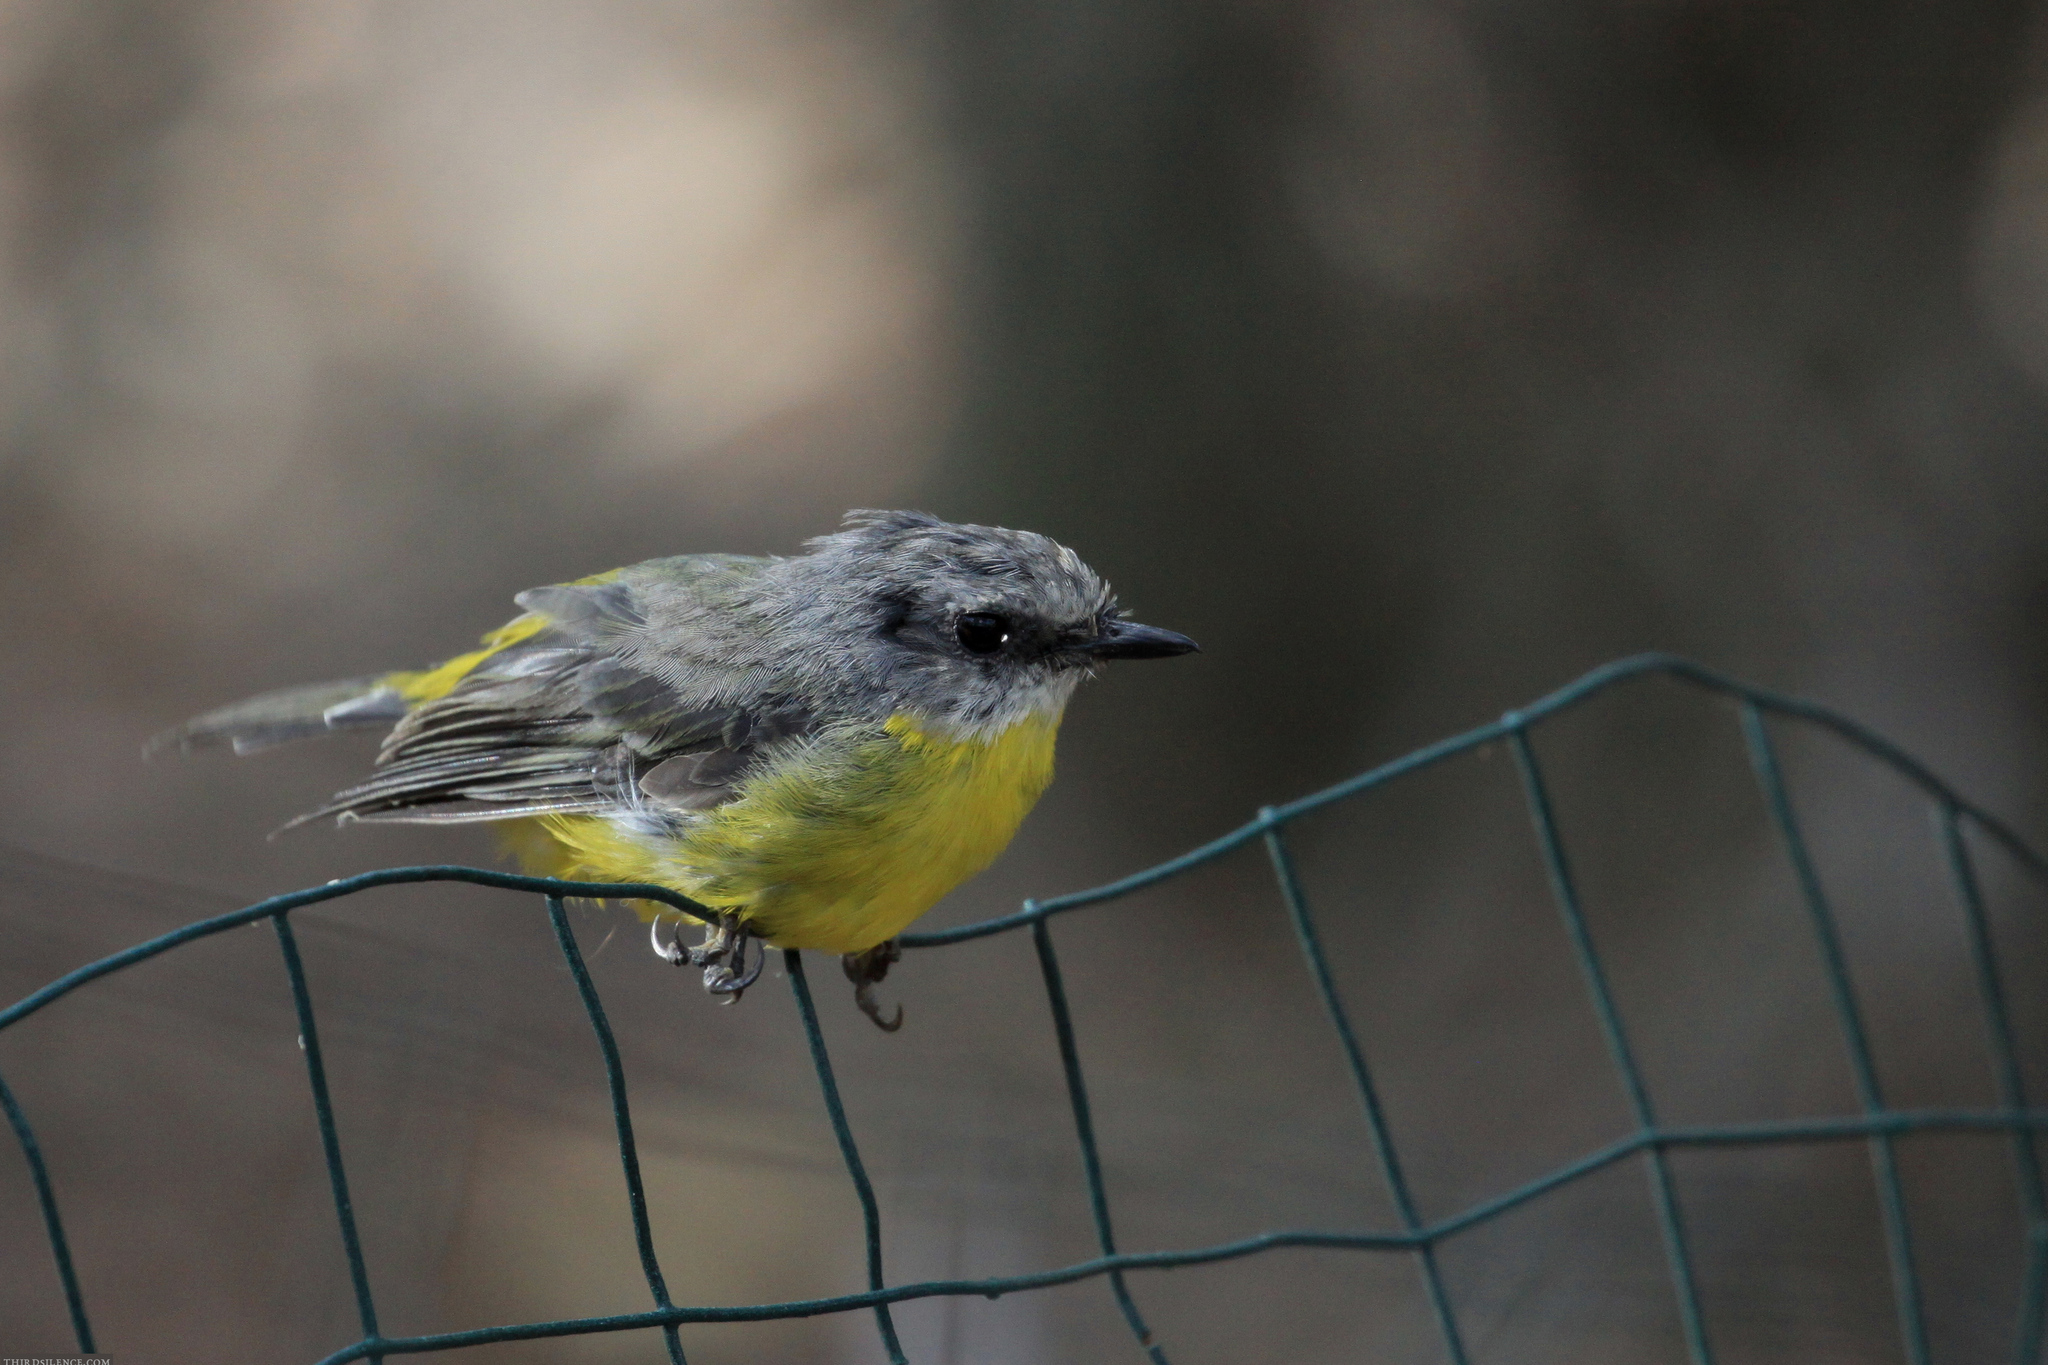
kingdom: Animalia
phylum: Chordata
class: Aves
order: Passeriformes
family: Petroicidae
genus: Eopsaltria
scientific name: Eopsaltria australis
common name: Eastern yellow robin
